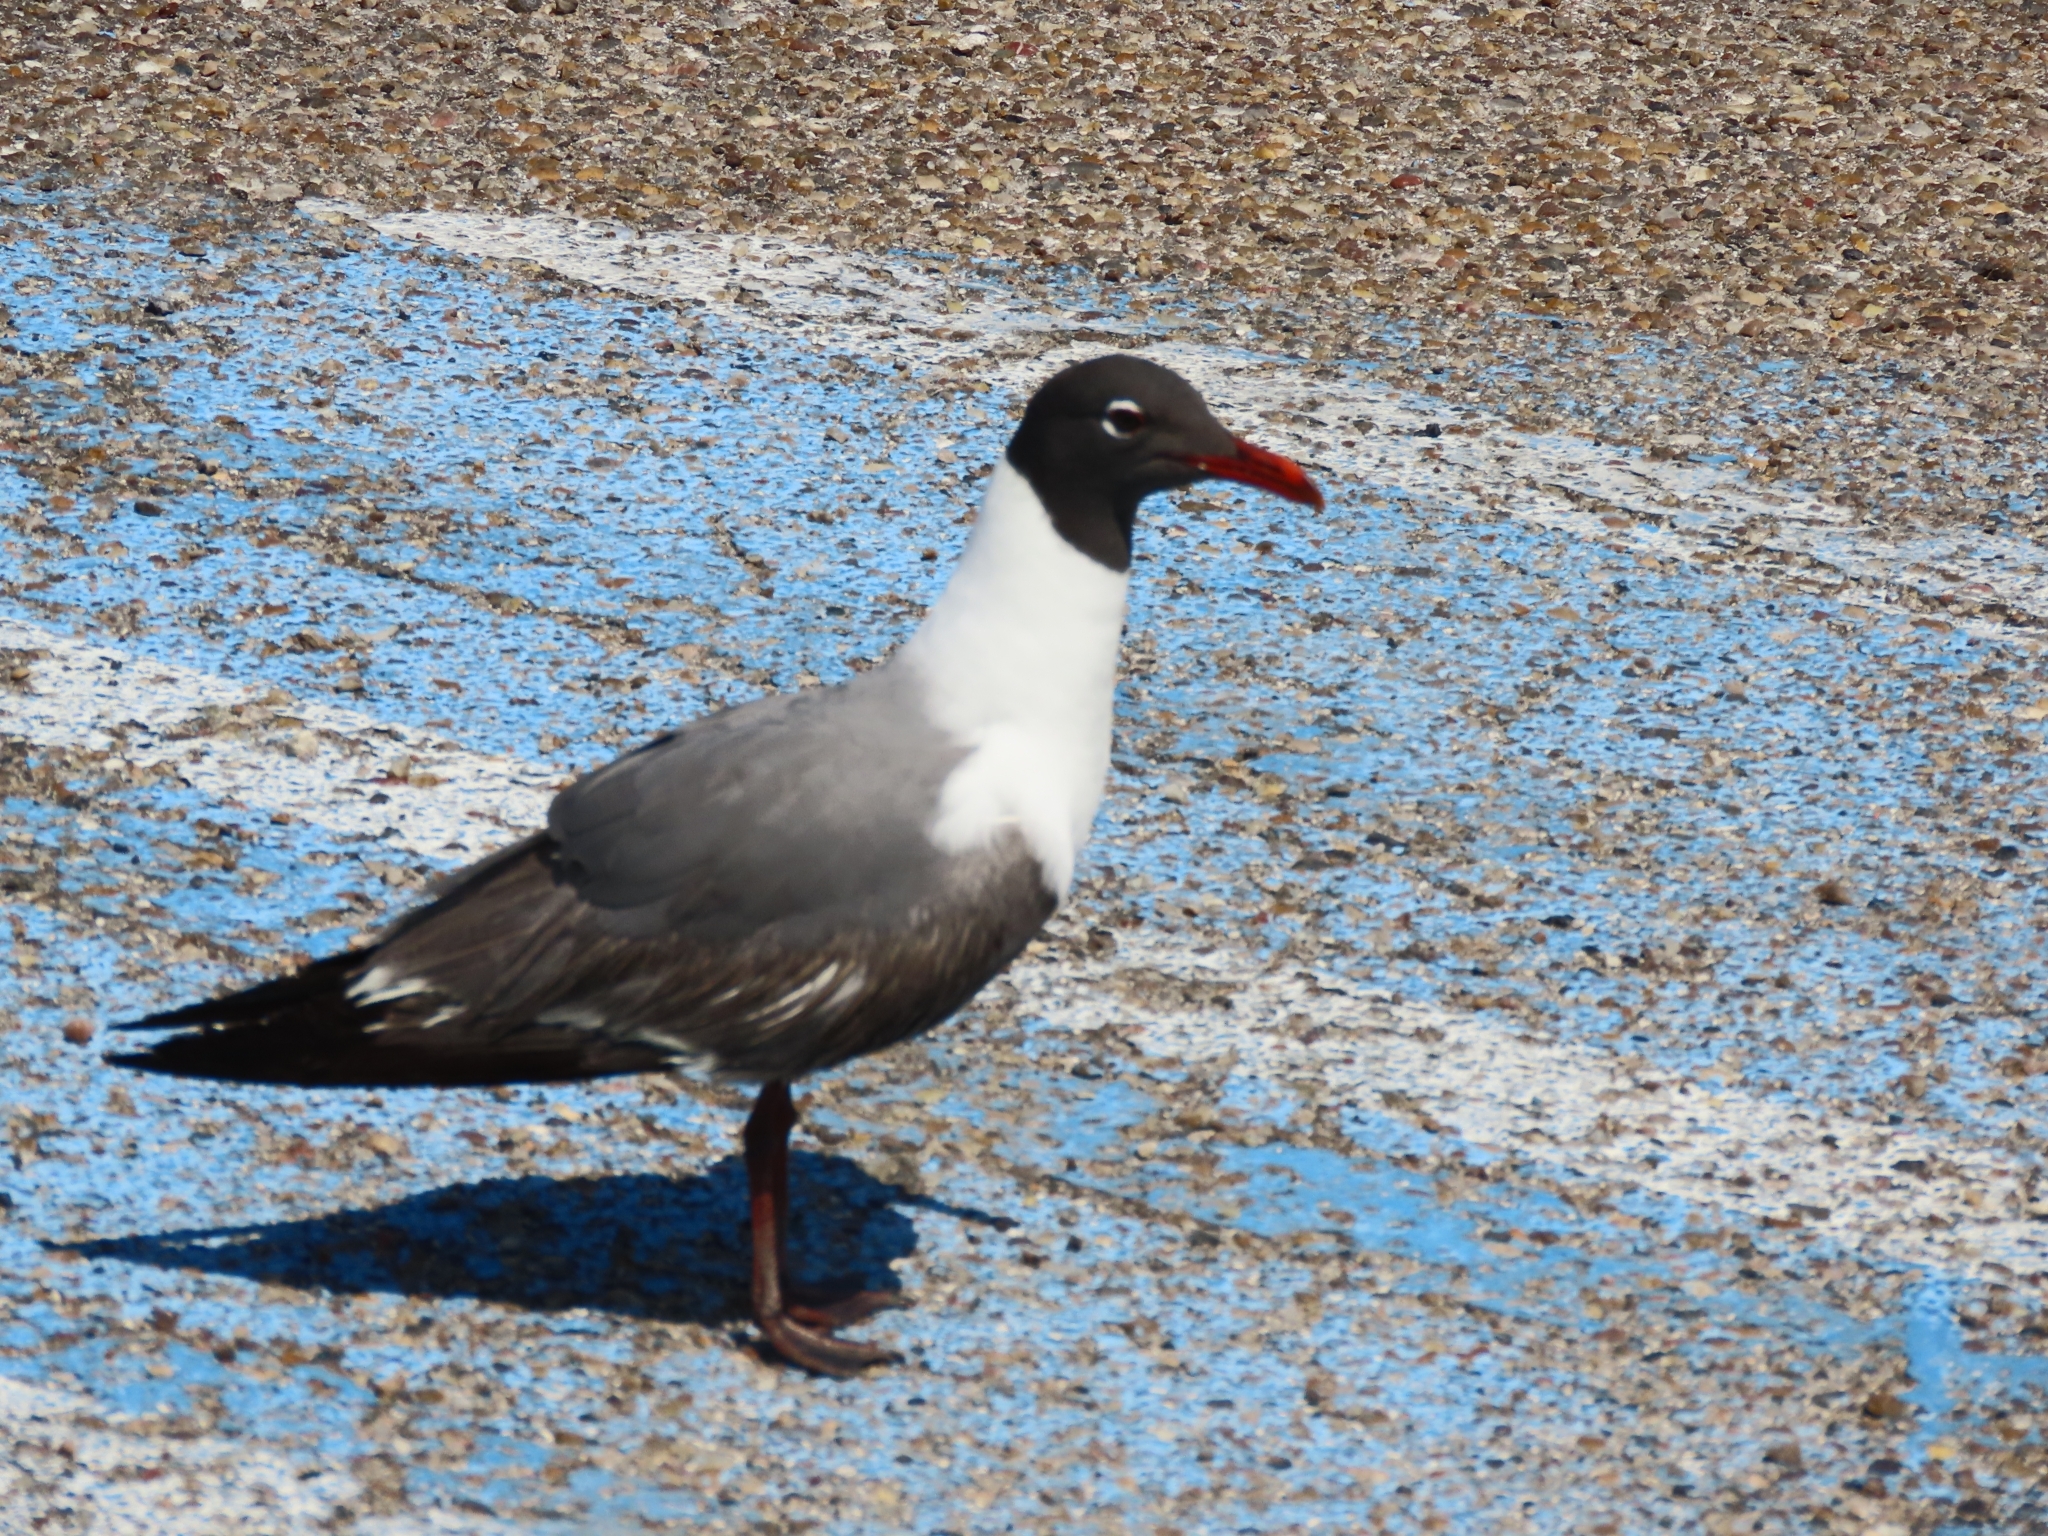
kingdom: Animalia
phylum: Chordata
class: Aves
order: Charadriiformes
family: Laridae
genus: Leucophaeus
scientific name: Leucophaeus atricilla
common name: Laughing gull
